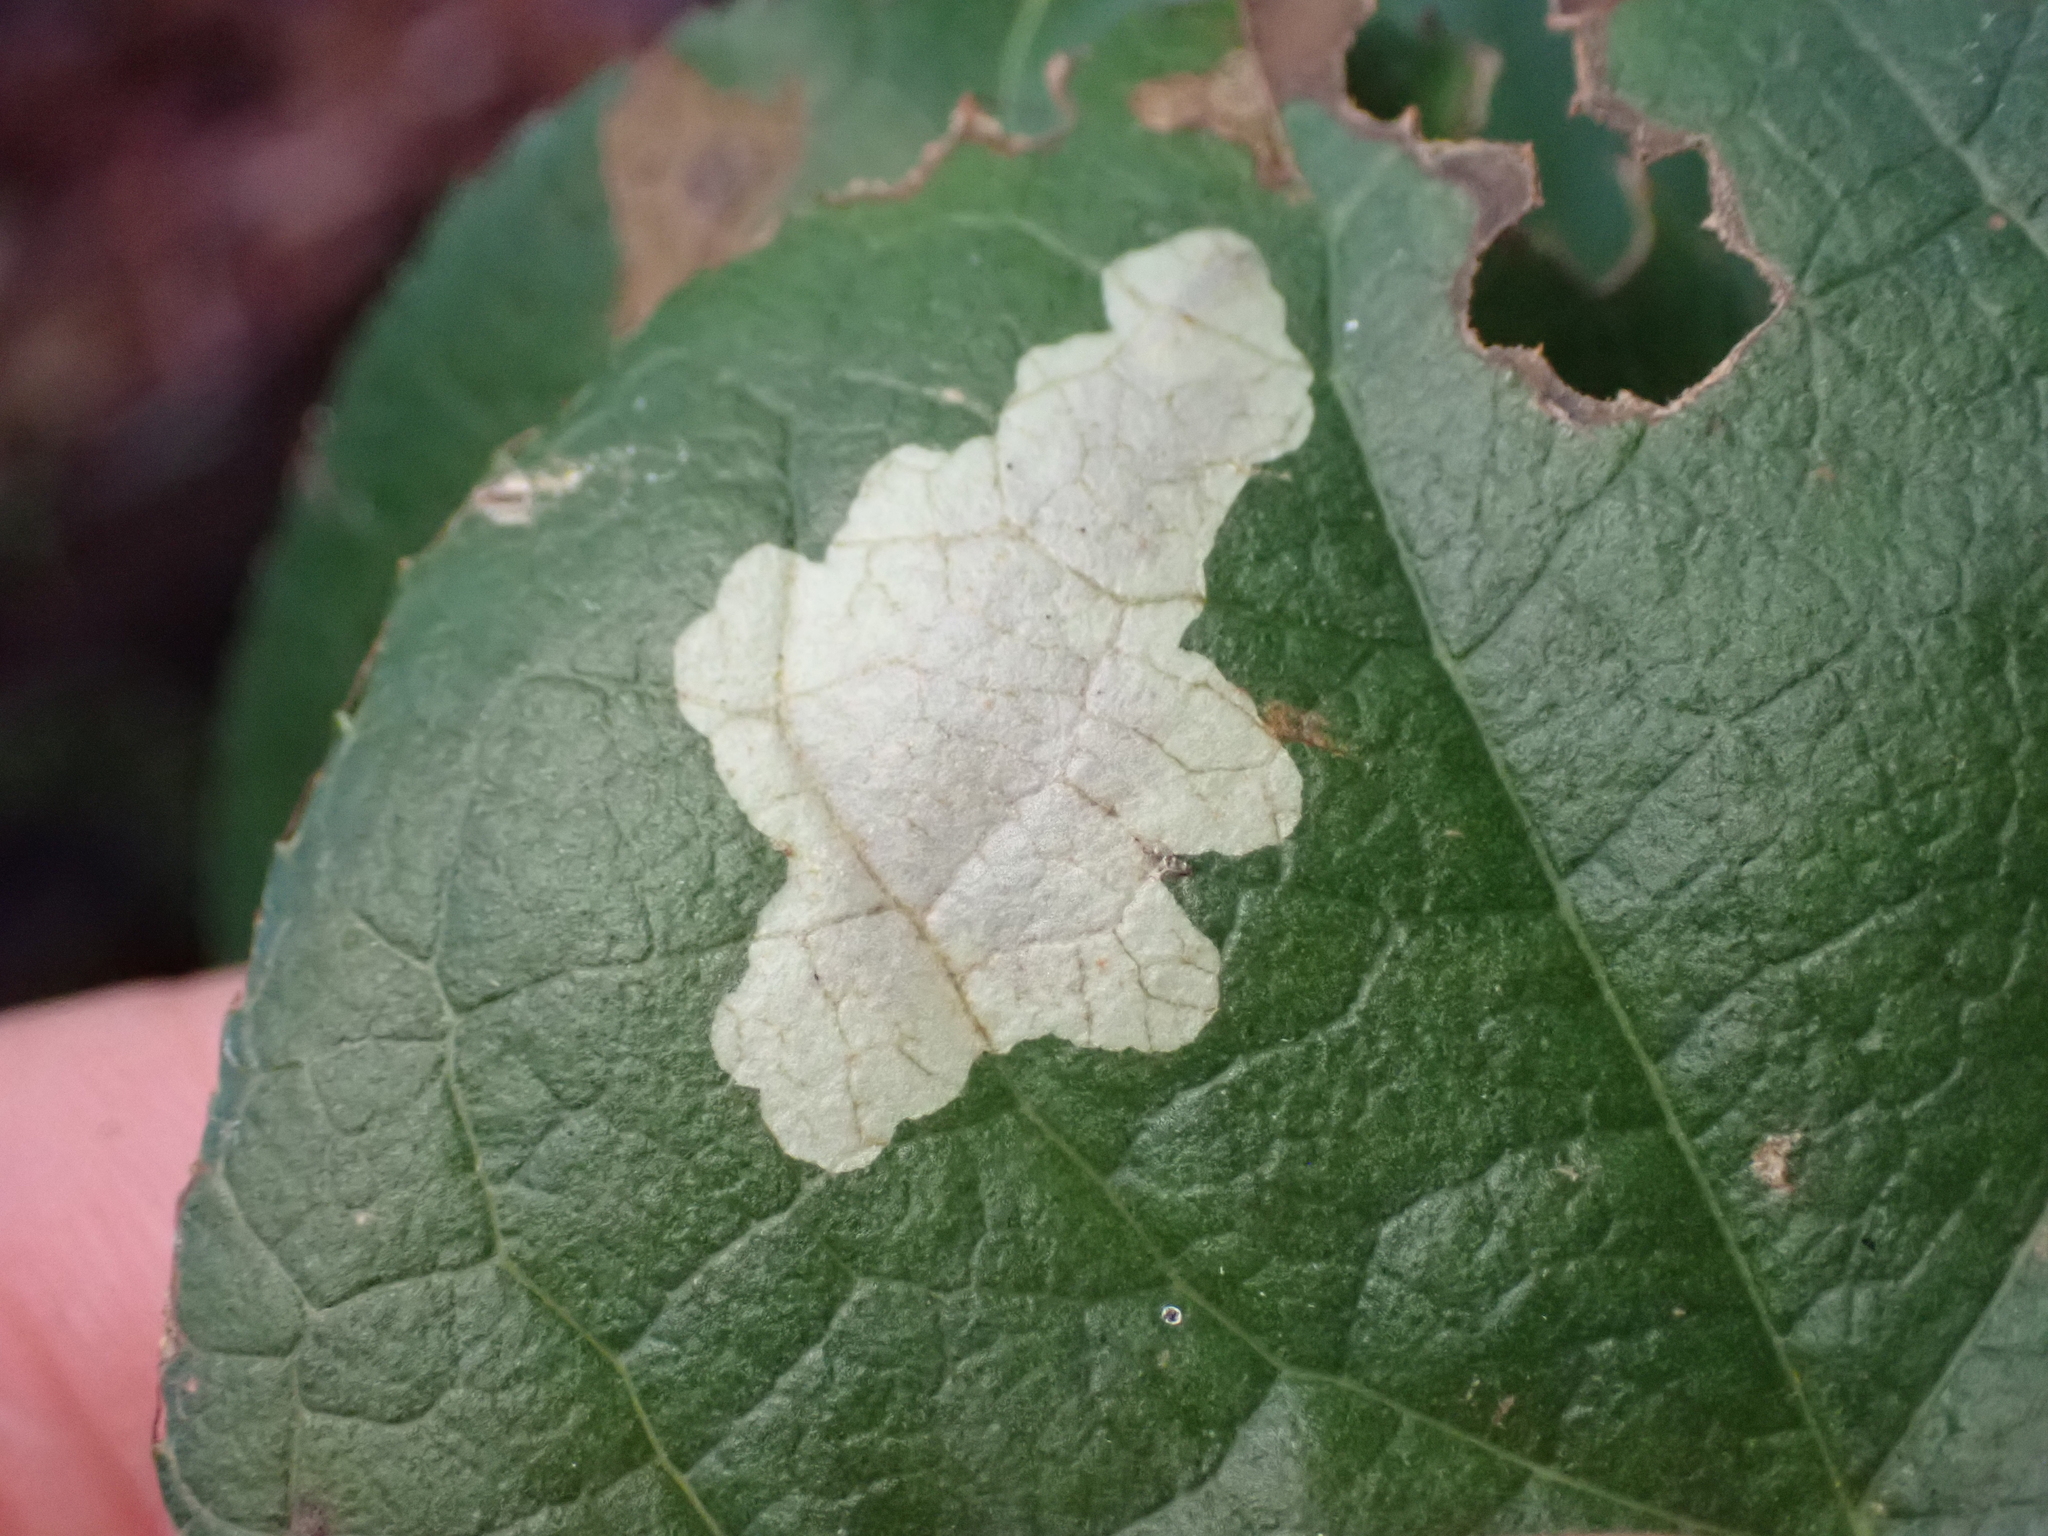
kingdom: Animalia
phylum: Arthropoda
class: Insecta
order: Lepidoptera
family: Gracillariidae
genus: Cameraria
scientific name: Cameraria gaultheriella
